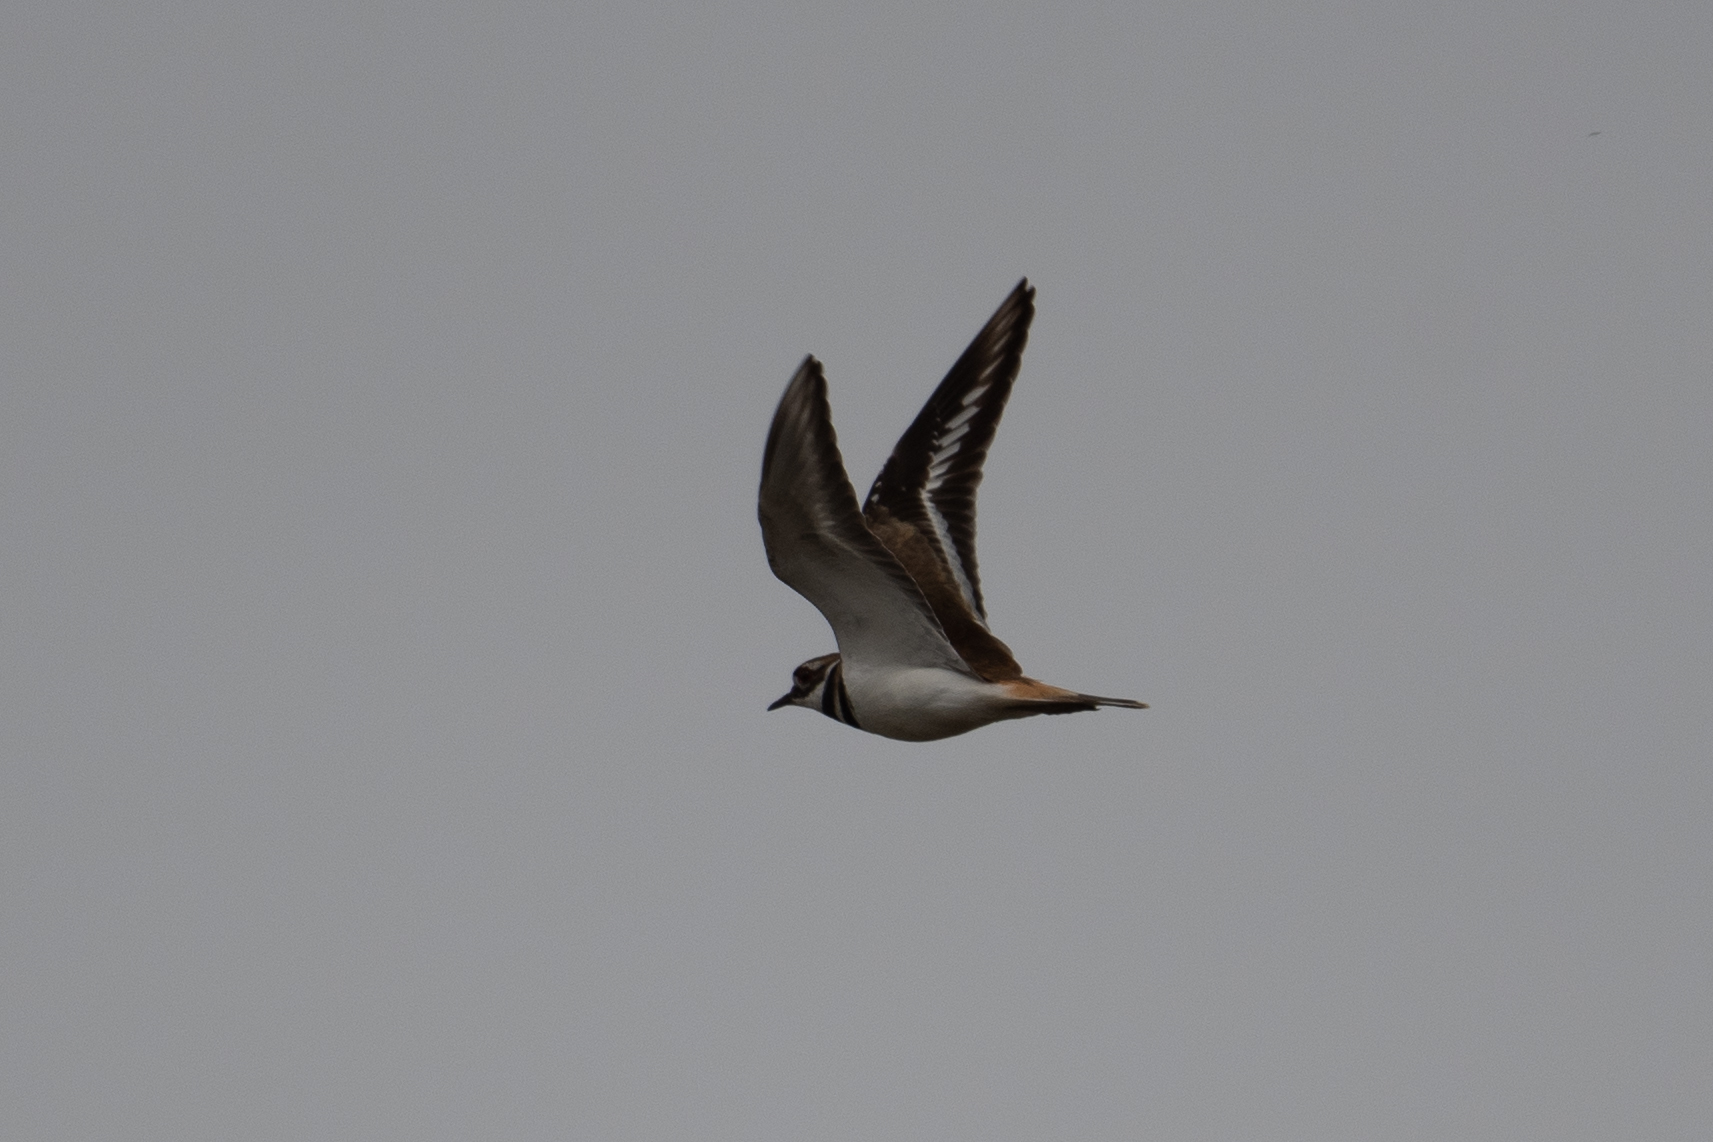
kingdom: Animalia
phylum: Chordata
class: Aves
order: Charadriiformes
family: Charadriidae
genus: Charadrius
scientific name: Charadrius vociferus
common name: Killdeer
